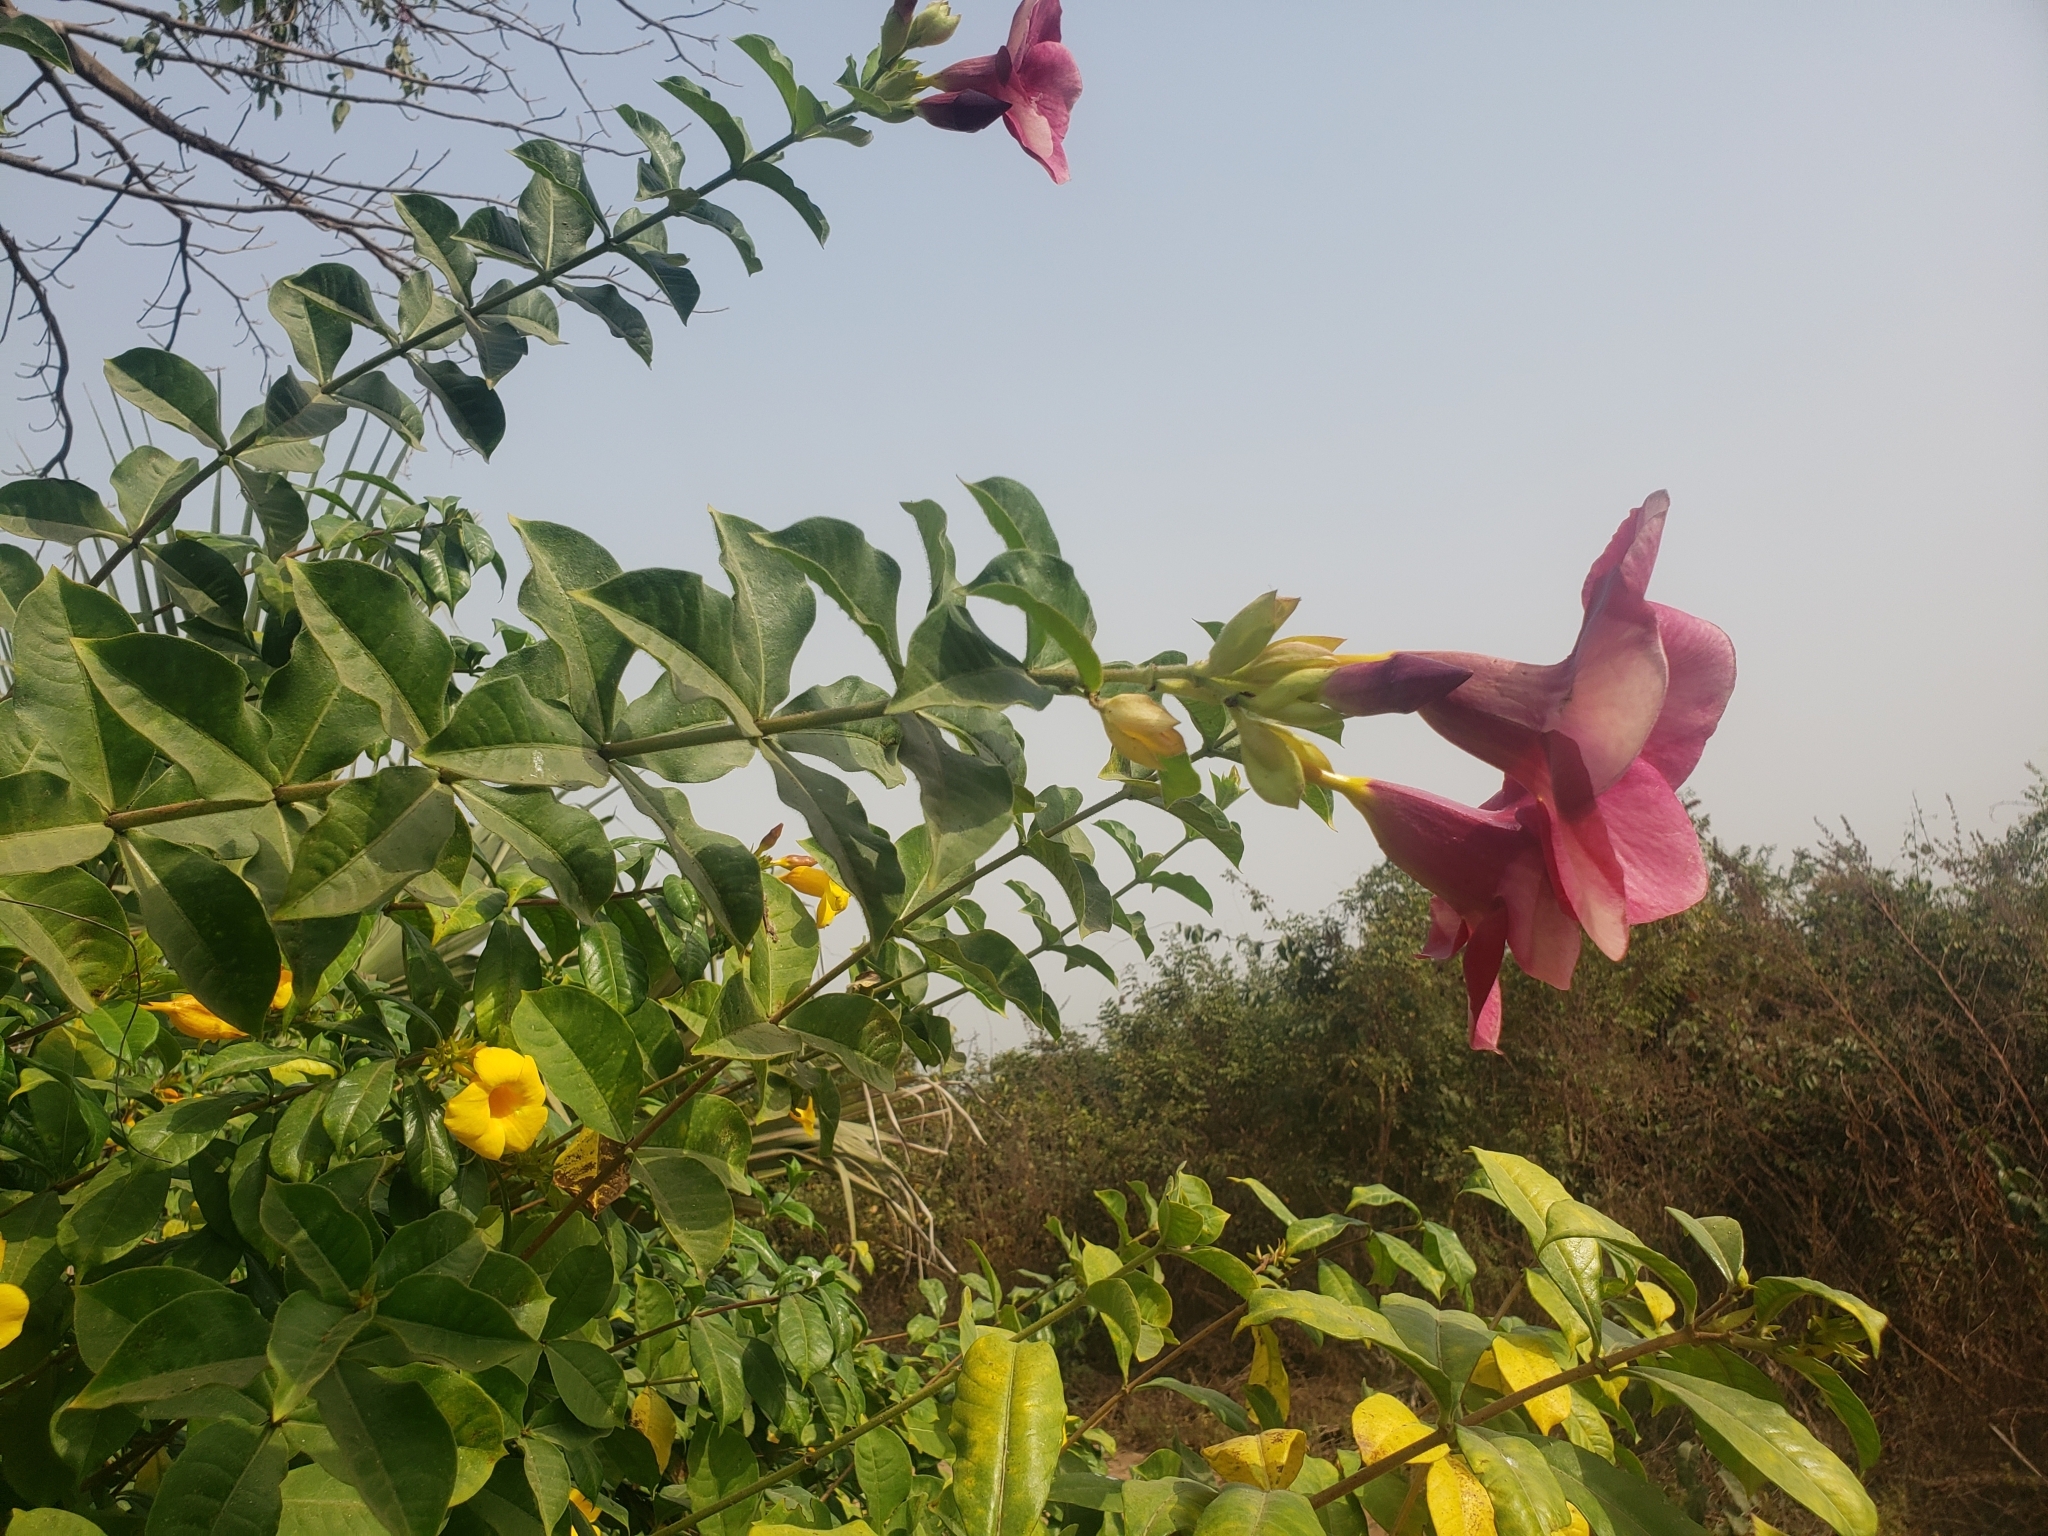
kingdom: Plantae
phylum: Tracheophyta
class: Magnoliopsida
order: Gentianales
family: Apocynaceae
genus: Allamanda
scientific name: Allamanda blanchetii
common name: Purple allamanda
